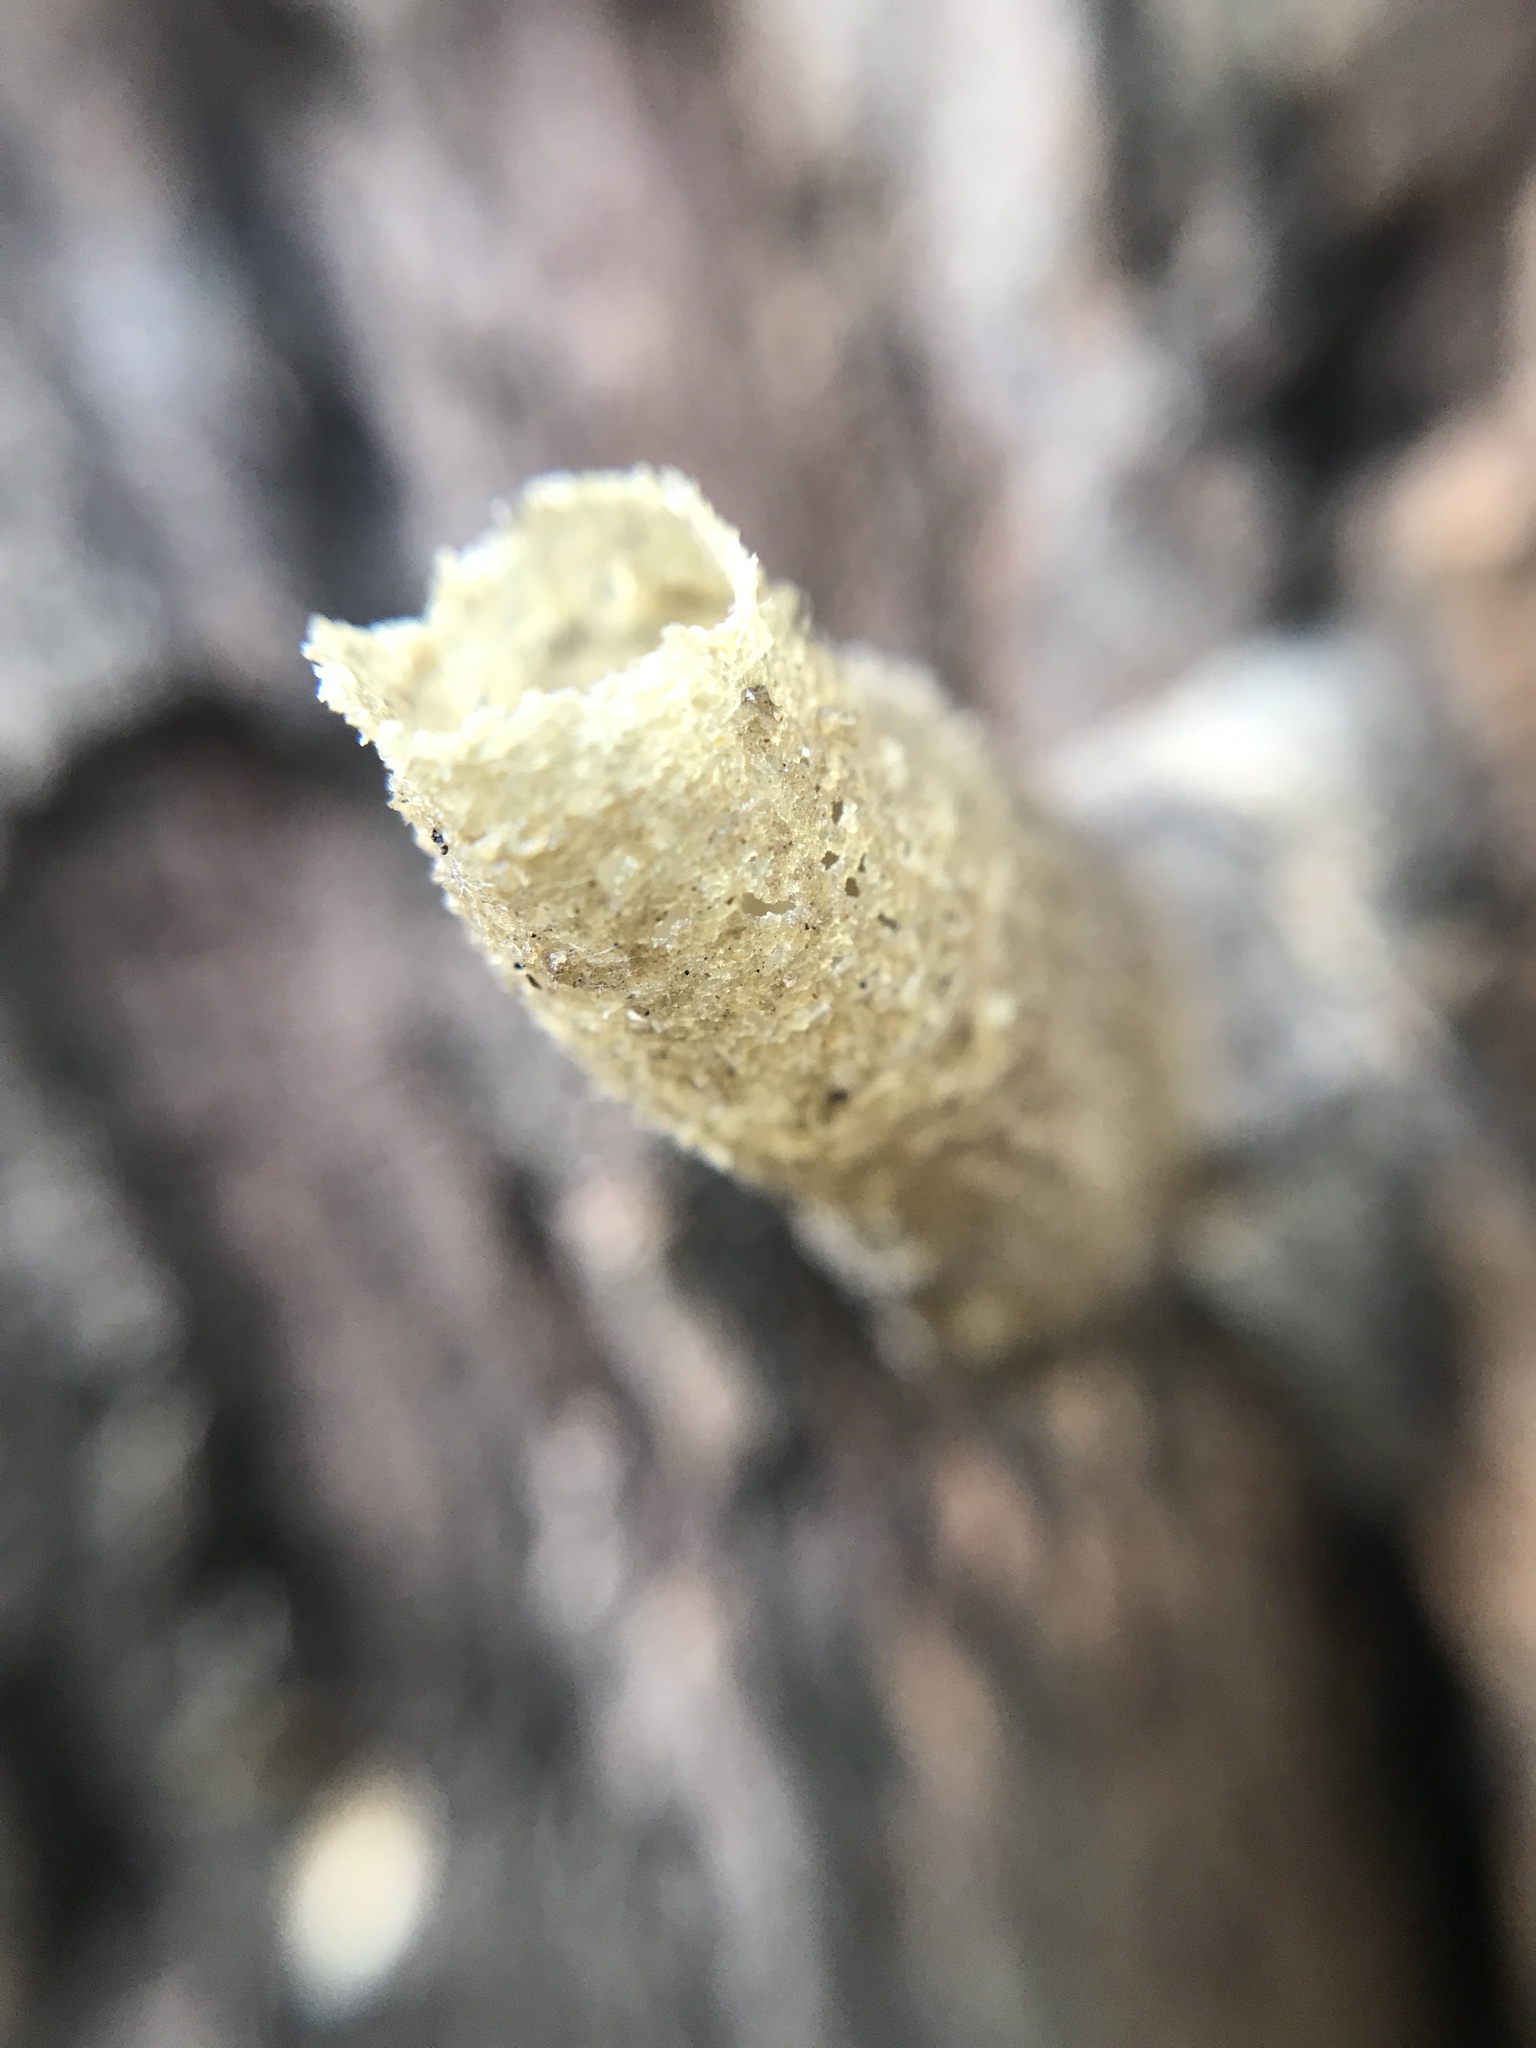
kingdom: Animalia
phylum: Arthropoda
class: Insecta
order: Hymenoptera
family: Apidae
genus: Tetragonisca
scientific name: Tetragonisca fiebrigi
